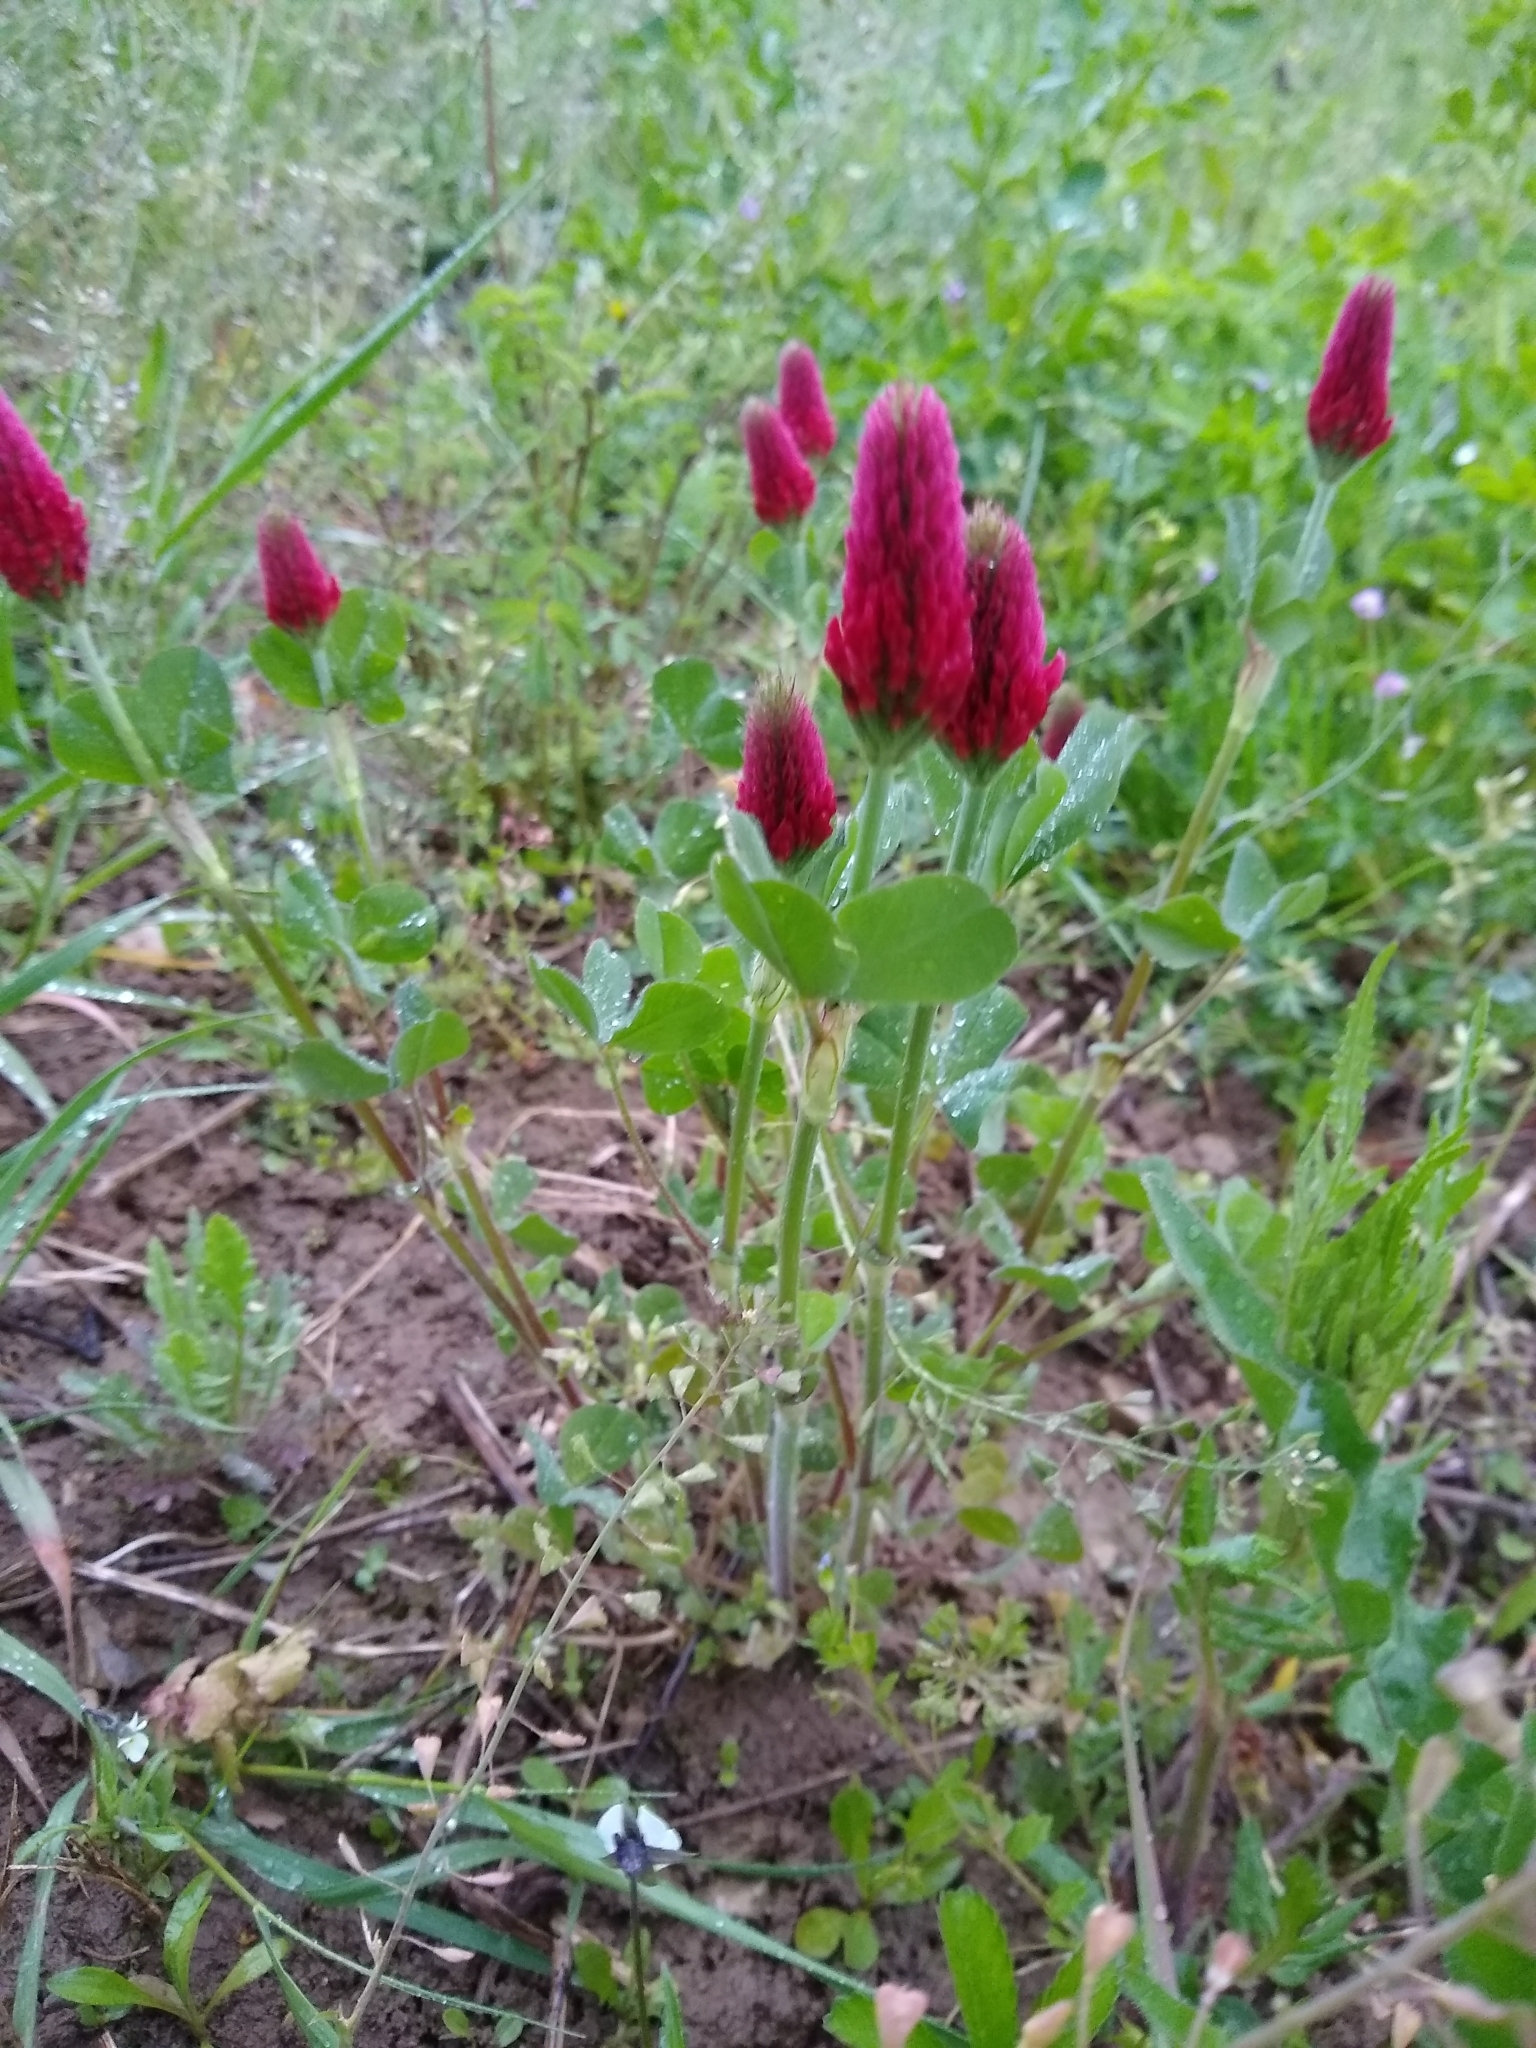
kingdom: Plantae
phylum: Tracheophyta
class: Magnoliopsida
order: Fabales
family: Fabaceae
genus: Trifolium
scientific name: Trifolium incarnatum
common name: Crimson clover
